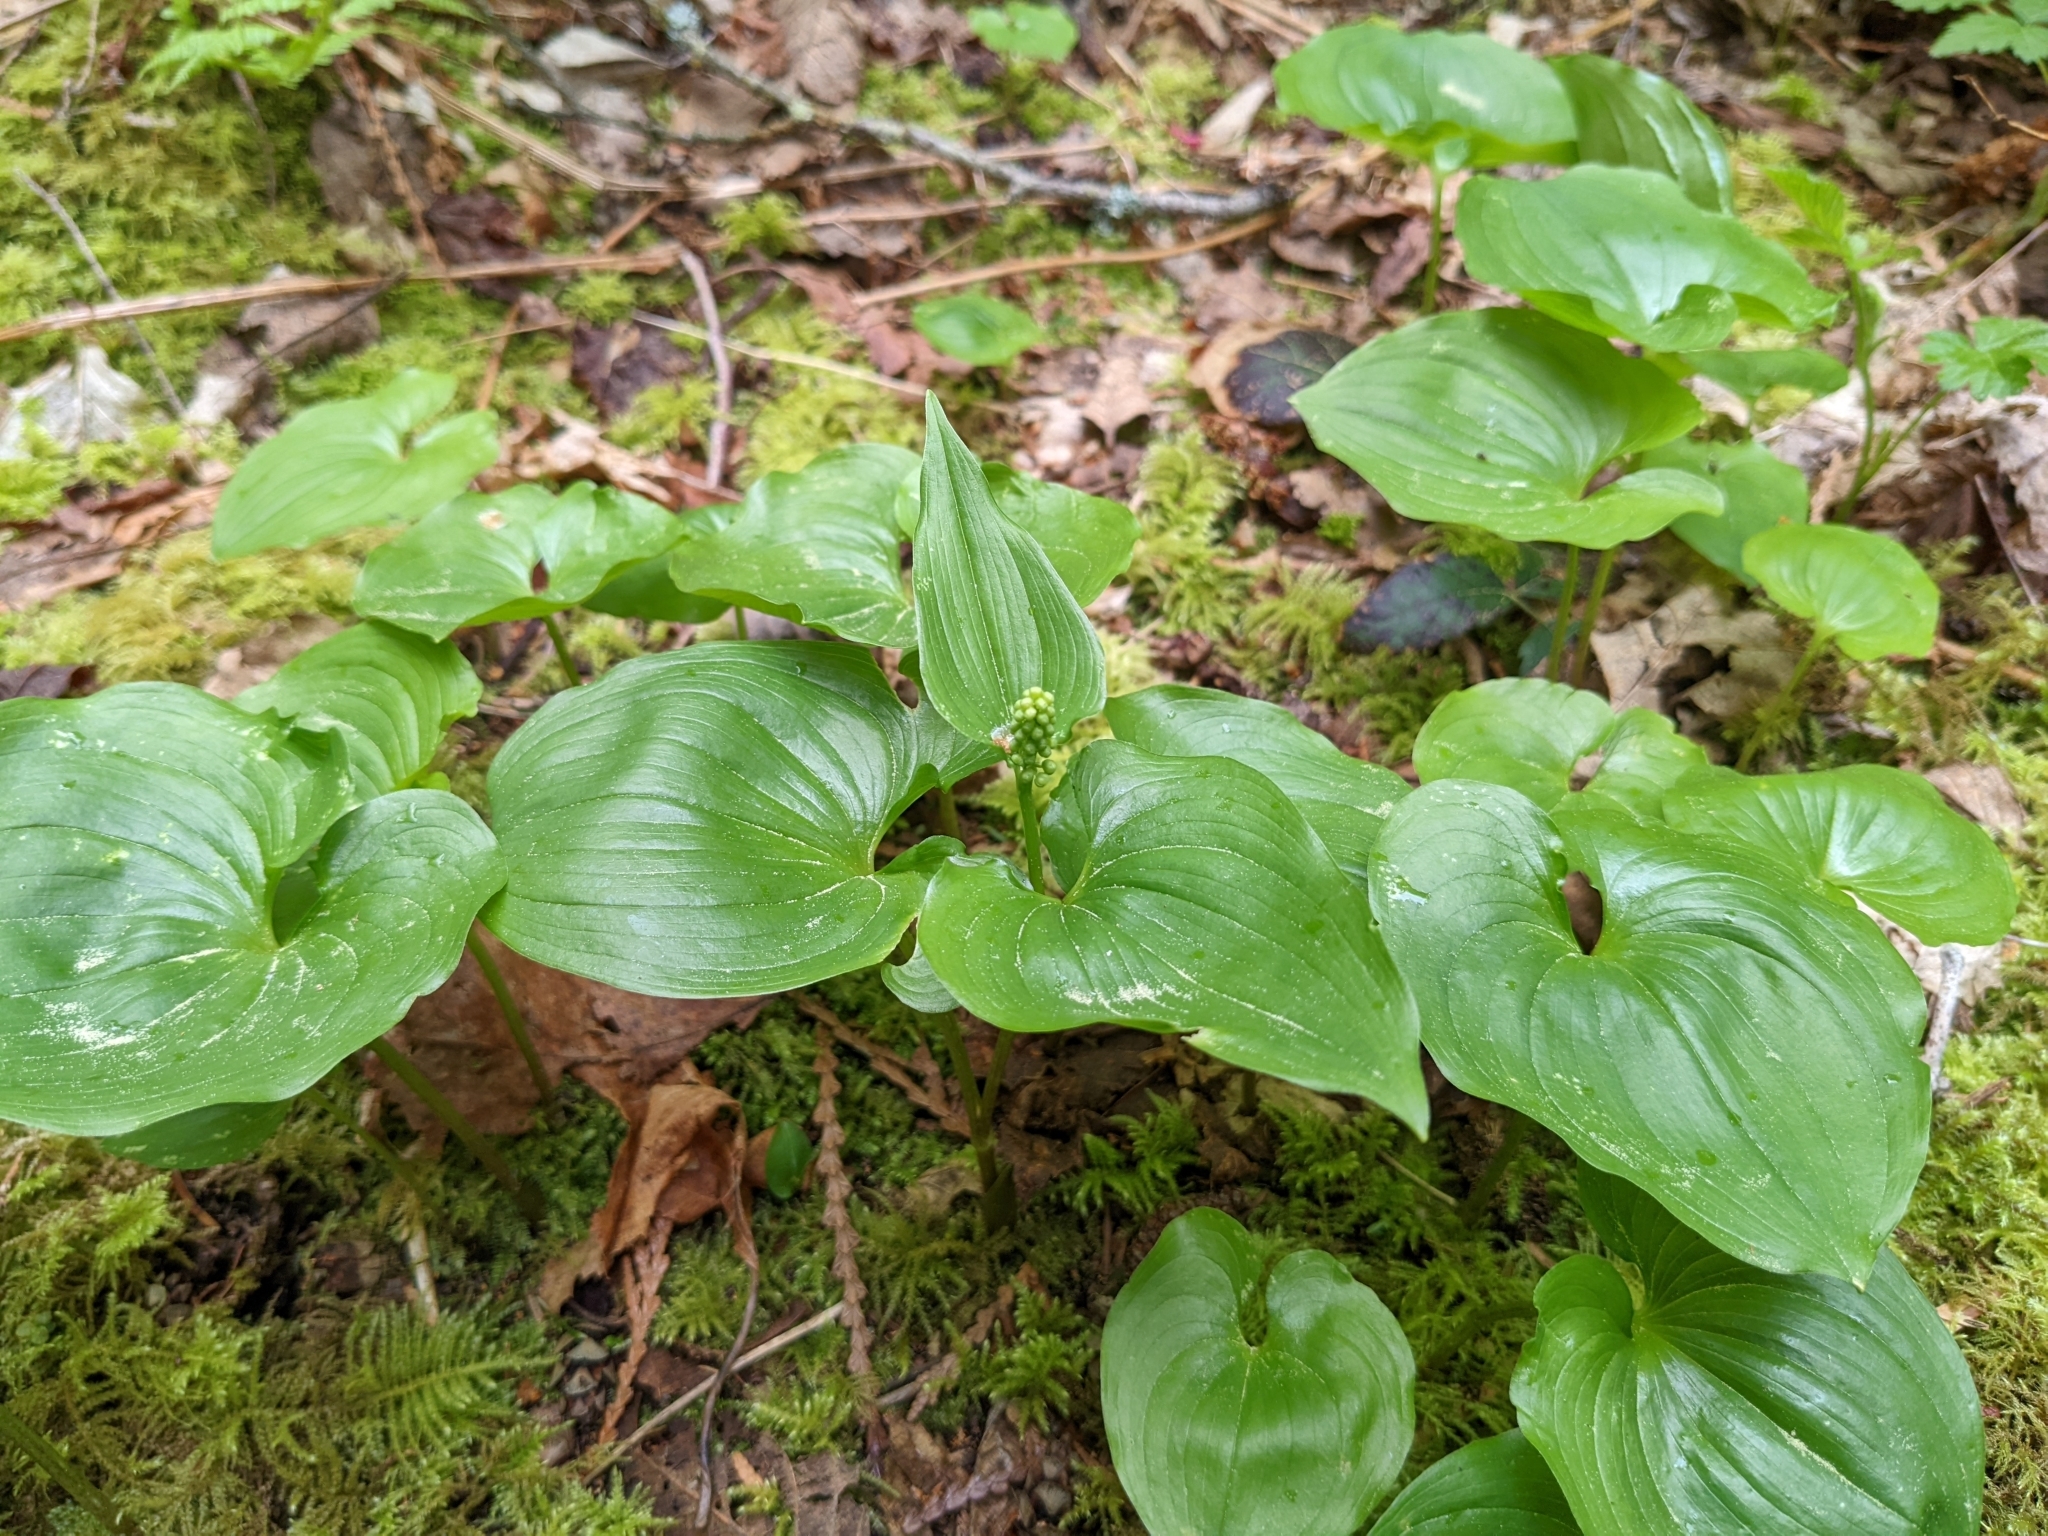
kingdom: Plantae
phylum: Tracheophyta
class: Liliopsida
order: Asparagales
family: Asparagaceae
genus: Maianthemum
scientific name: Maianthemum dilatatum
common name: False lily-of-the-valley
